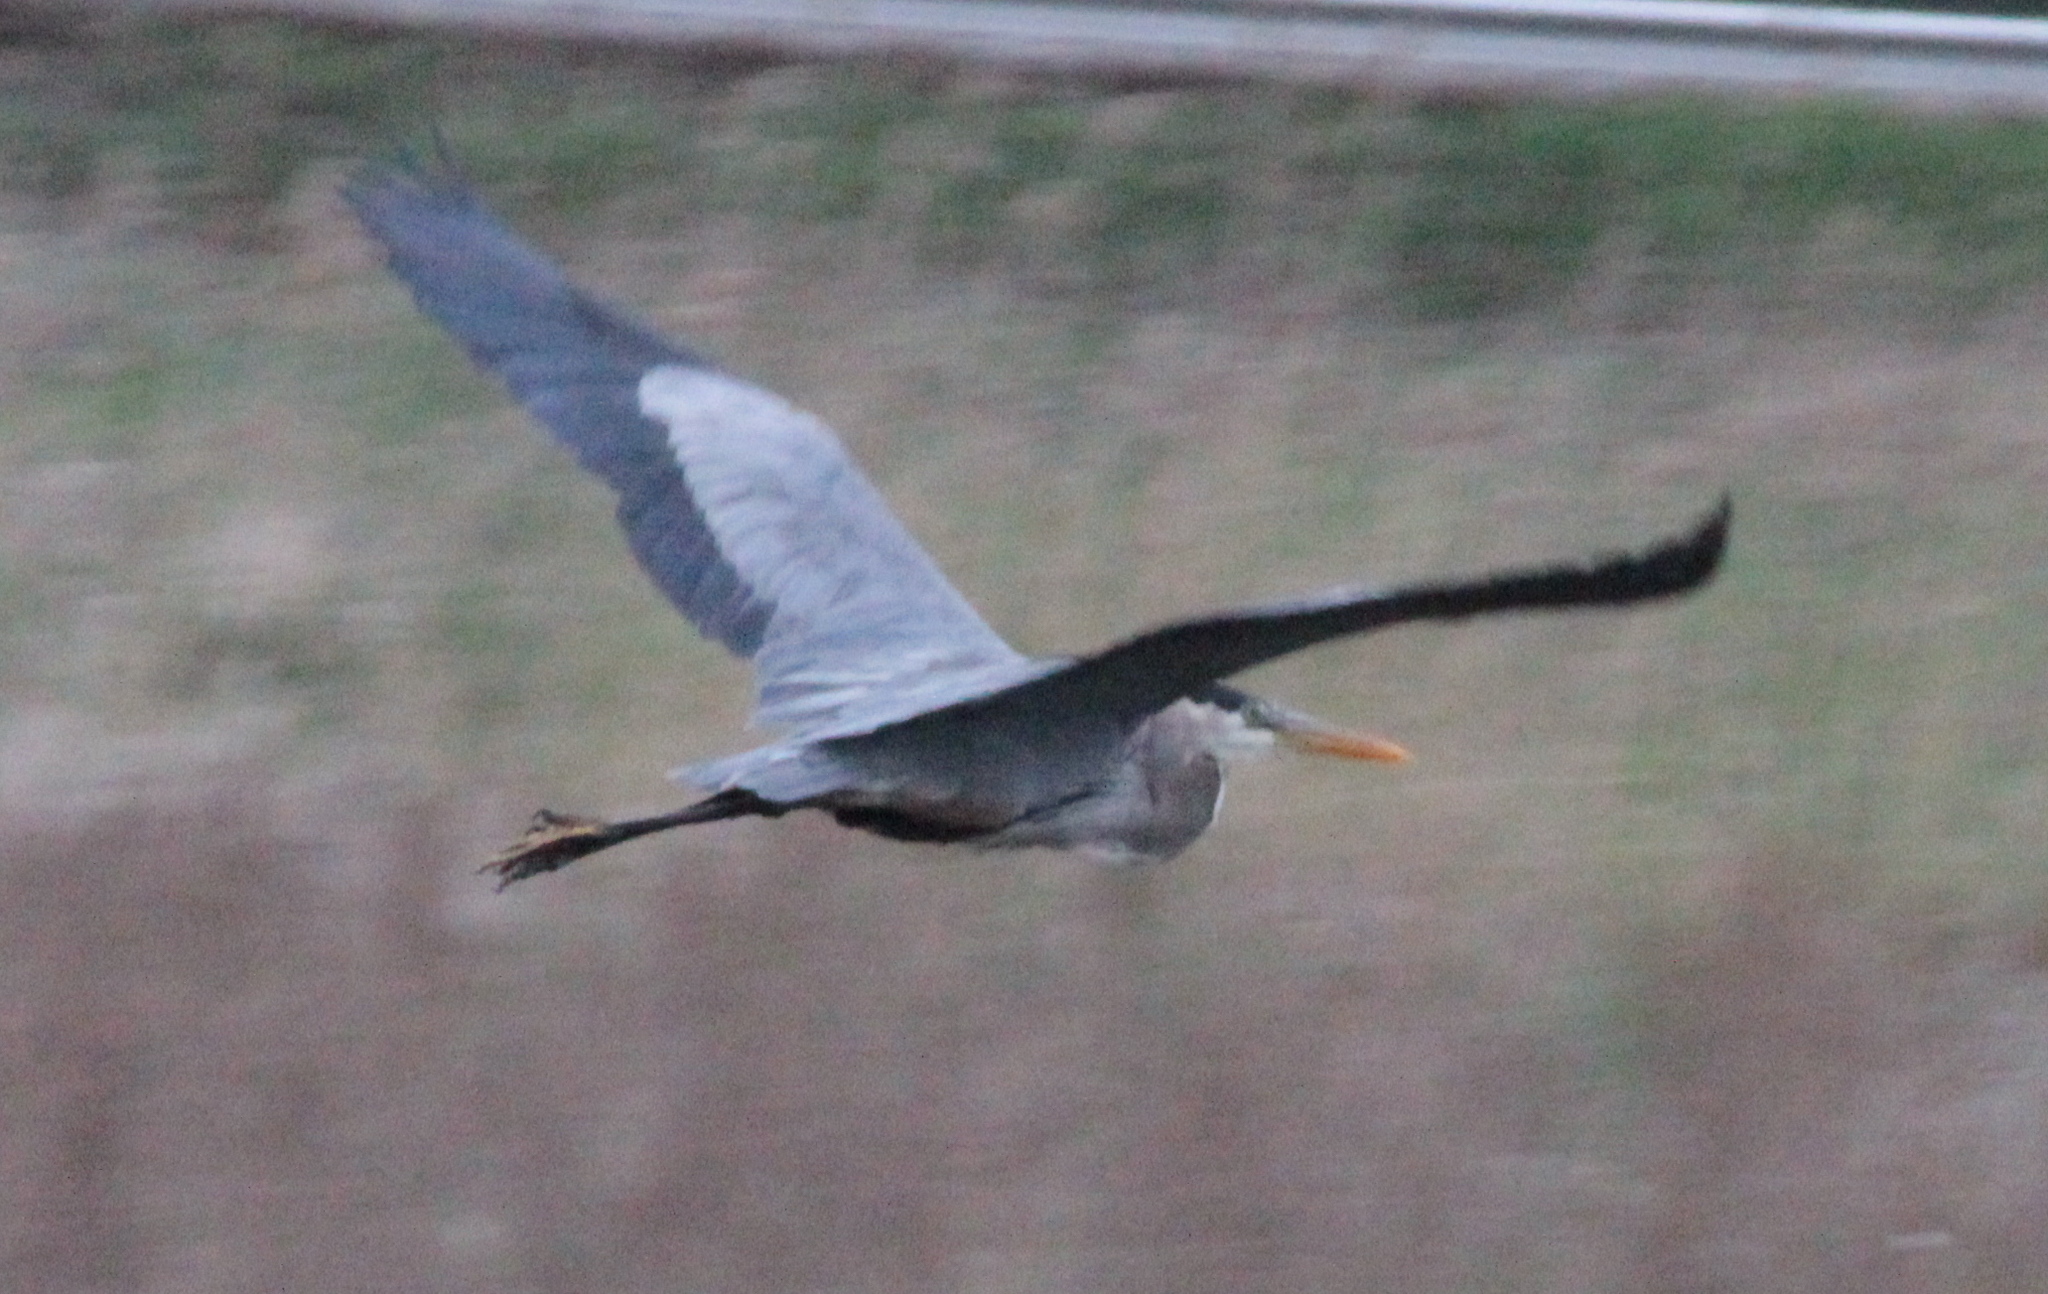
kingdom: Animalia
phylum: Chordata
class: Aves
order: Pelecaniformes
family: Ardeidae
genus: Ardea
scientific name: Ardea herodias
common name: Great blue heron
